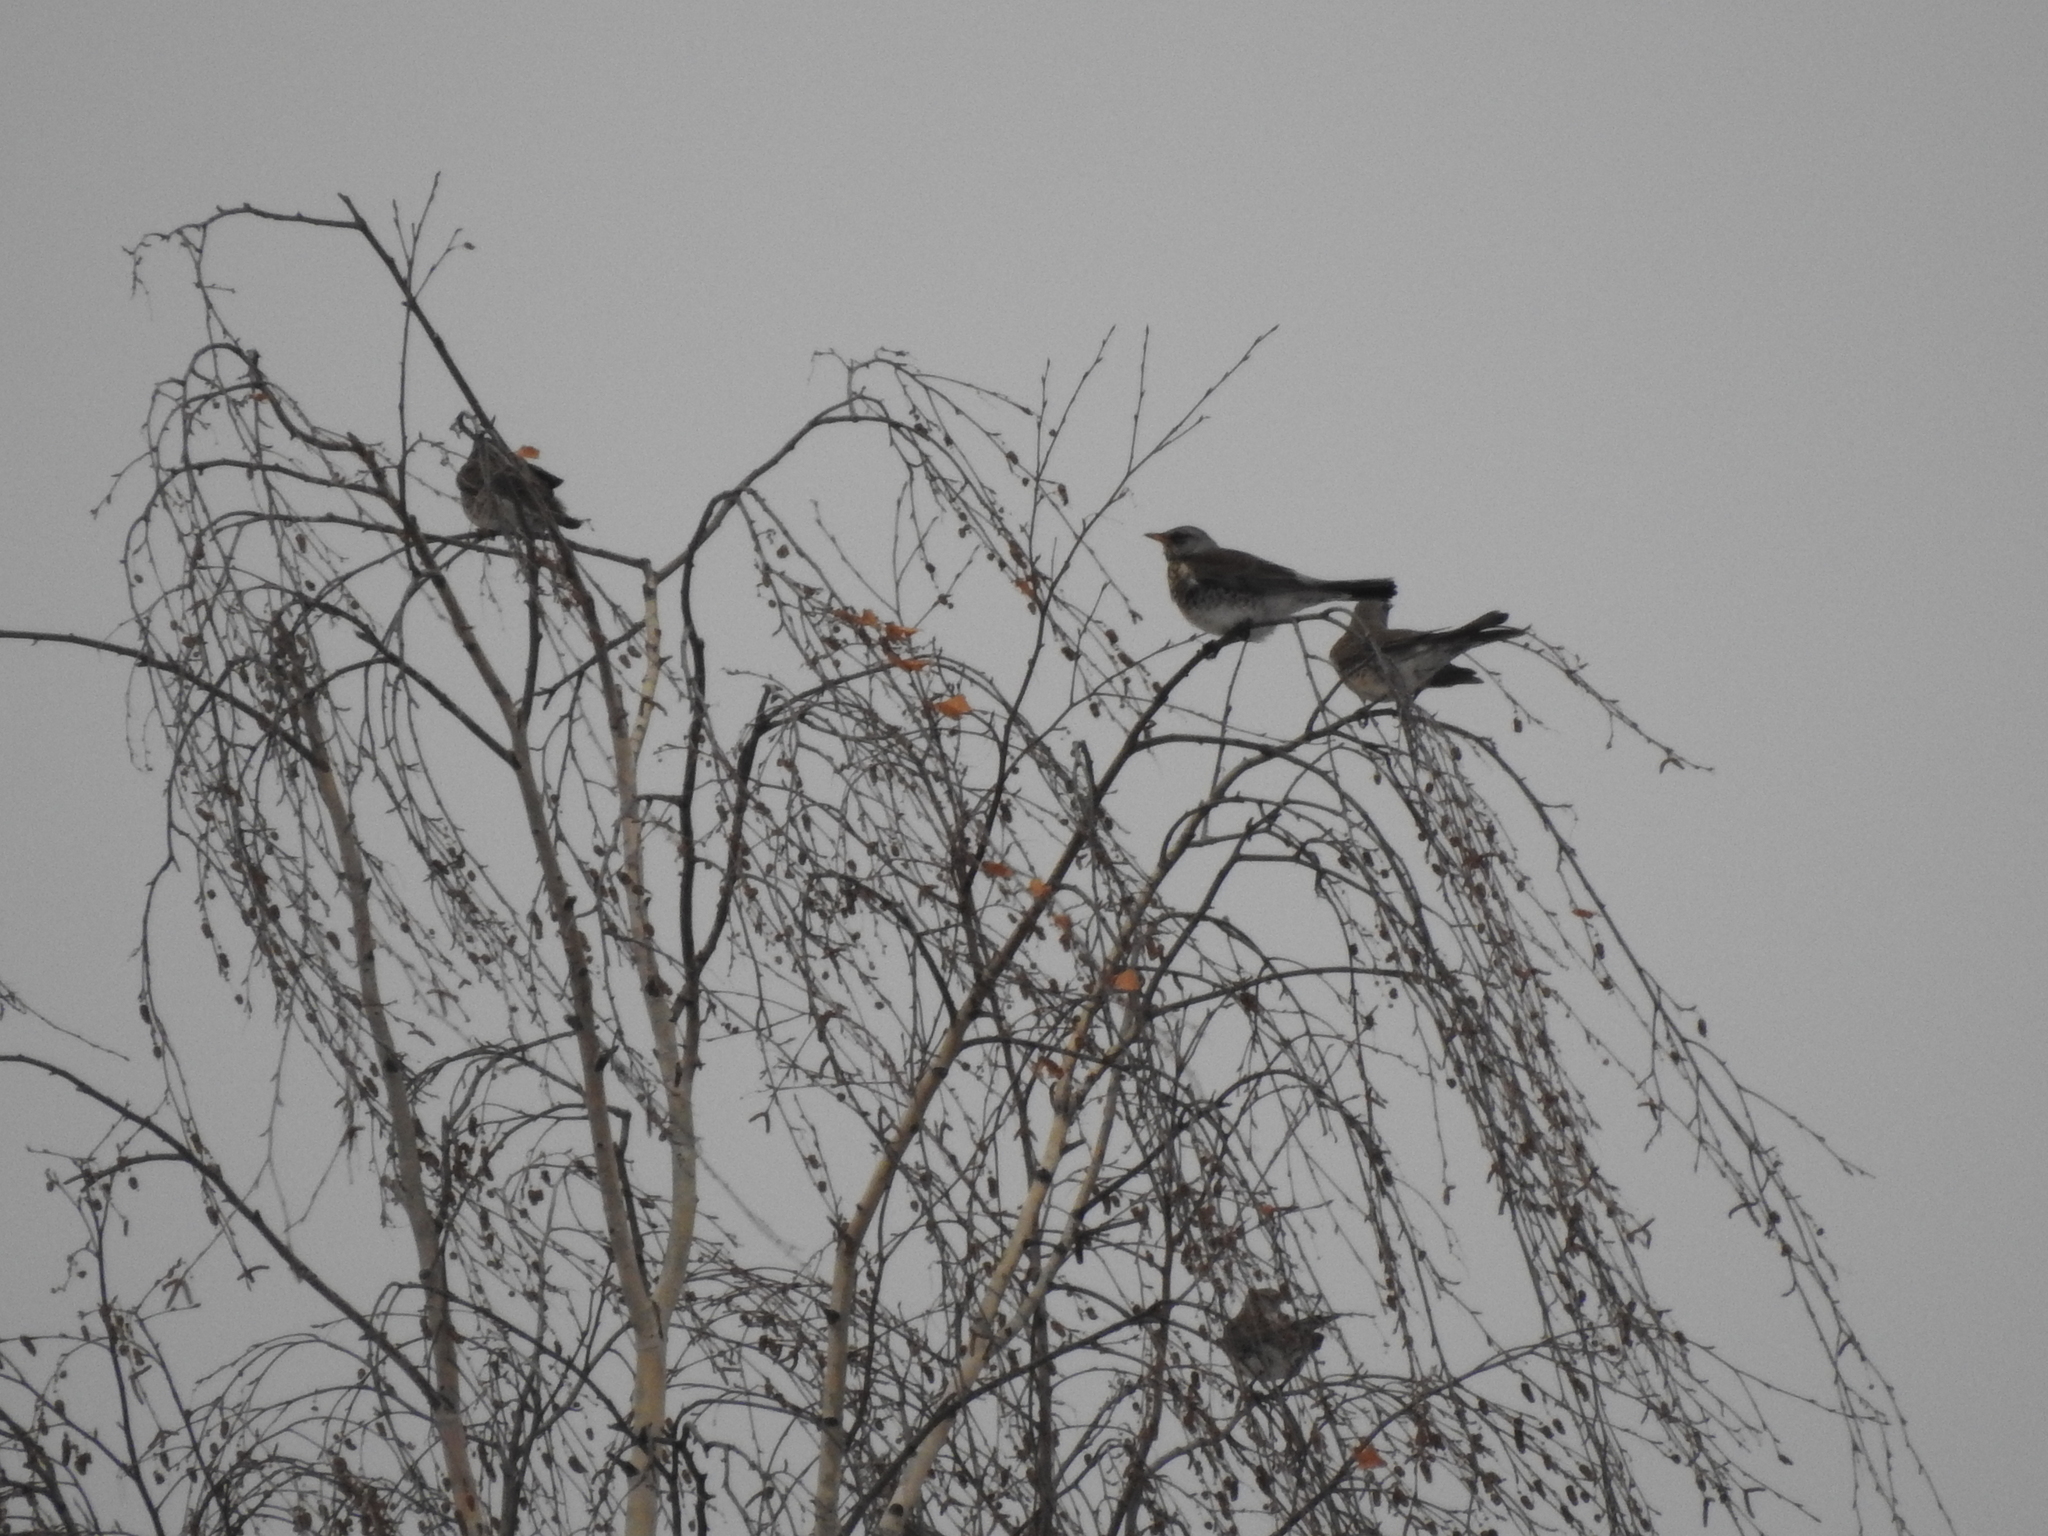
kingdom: Animalia
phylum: Chordata
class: Aves
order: Passeriformes
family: Turdidae
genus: Turdus
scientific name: Turdus pilaris
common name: Fieldfare
